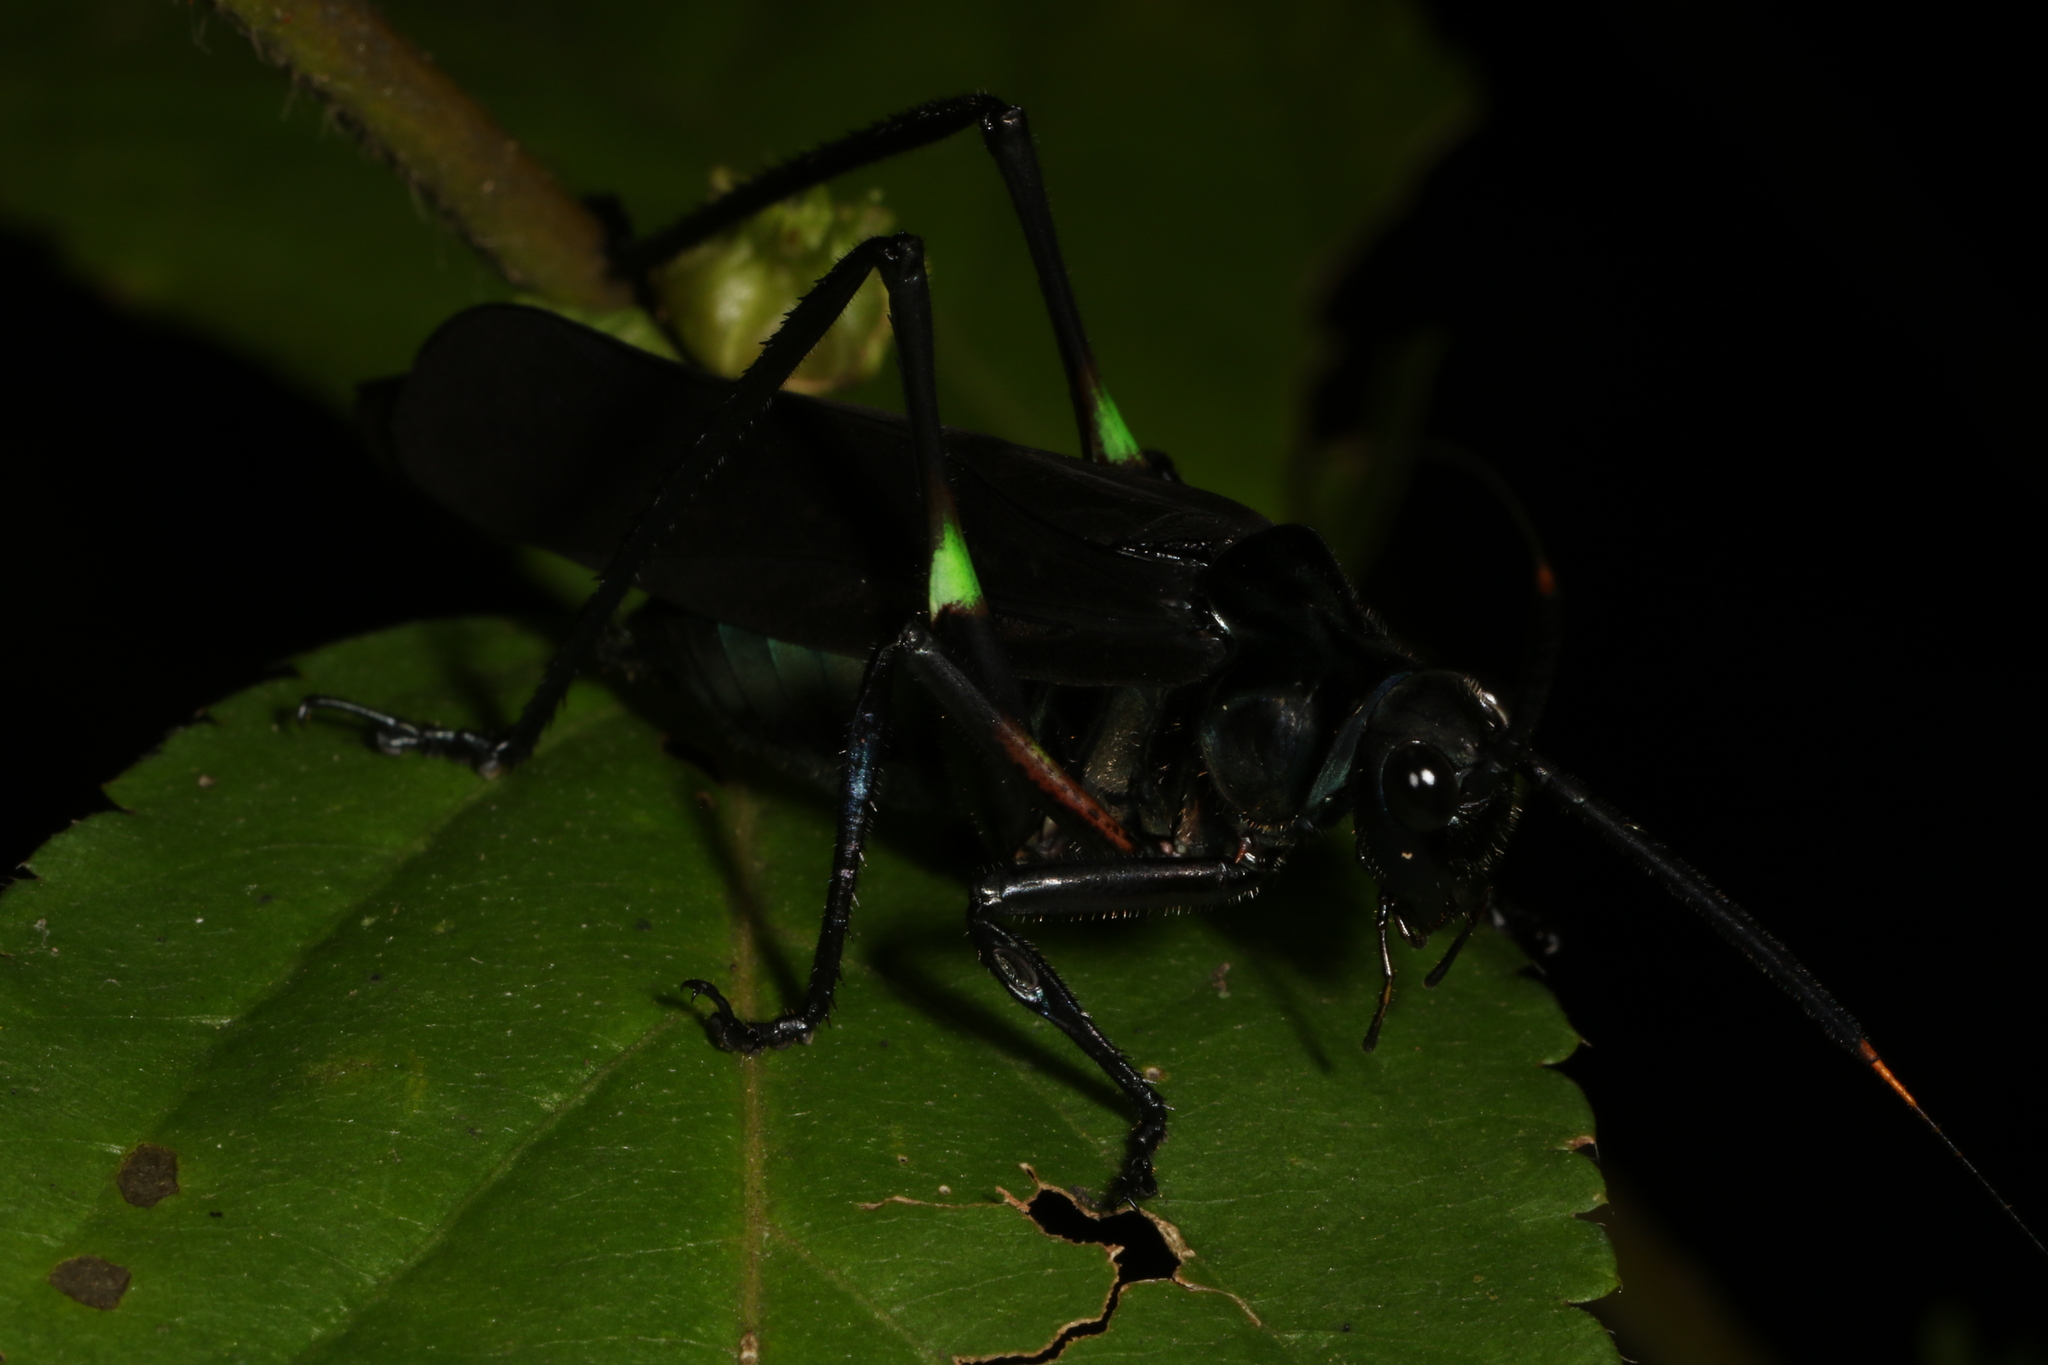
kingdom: Animalia
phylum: Arthropoda
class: Insecta
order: Orthoptera
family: Tettigoniidae
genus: Scaphura
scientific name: Scaphura nigra
